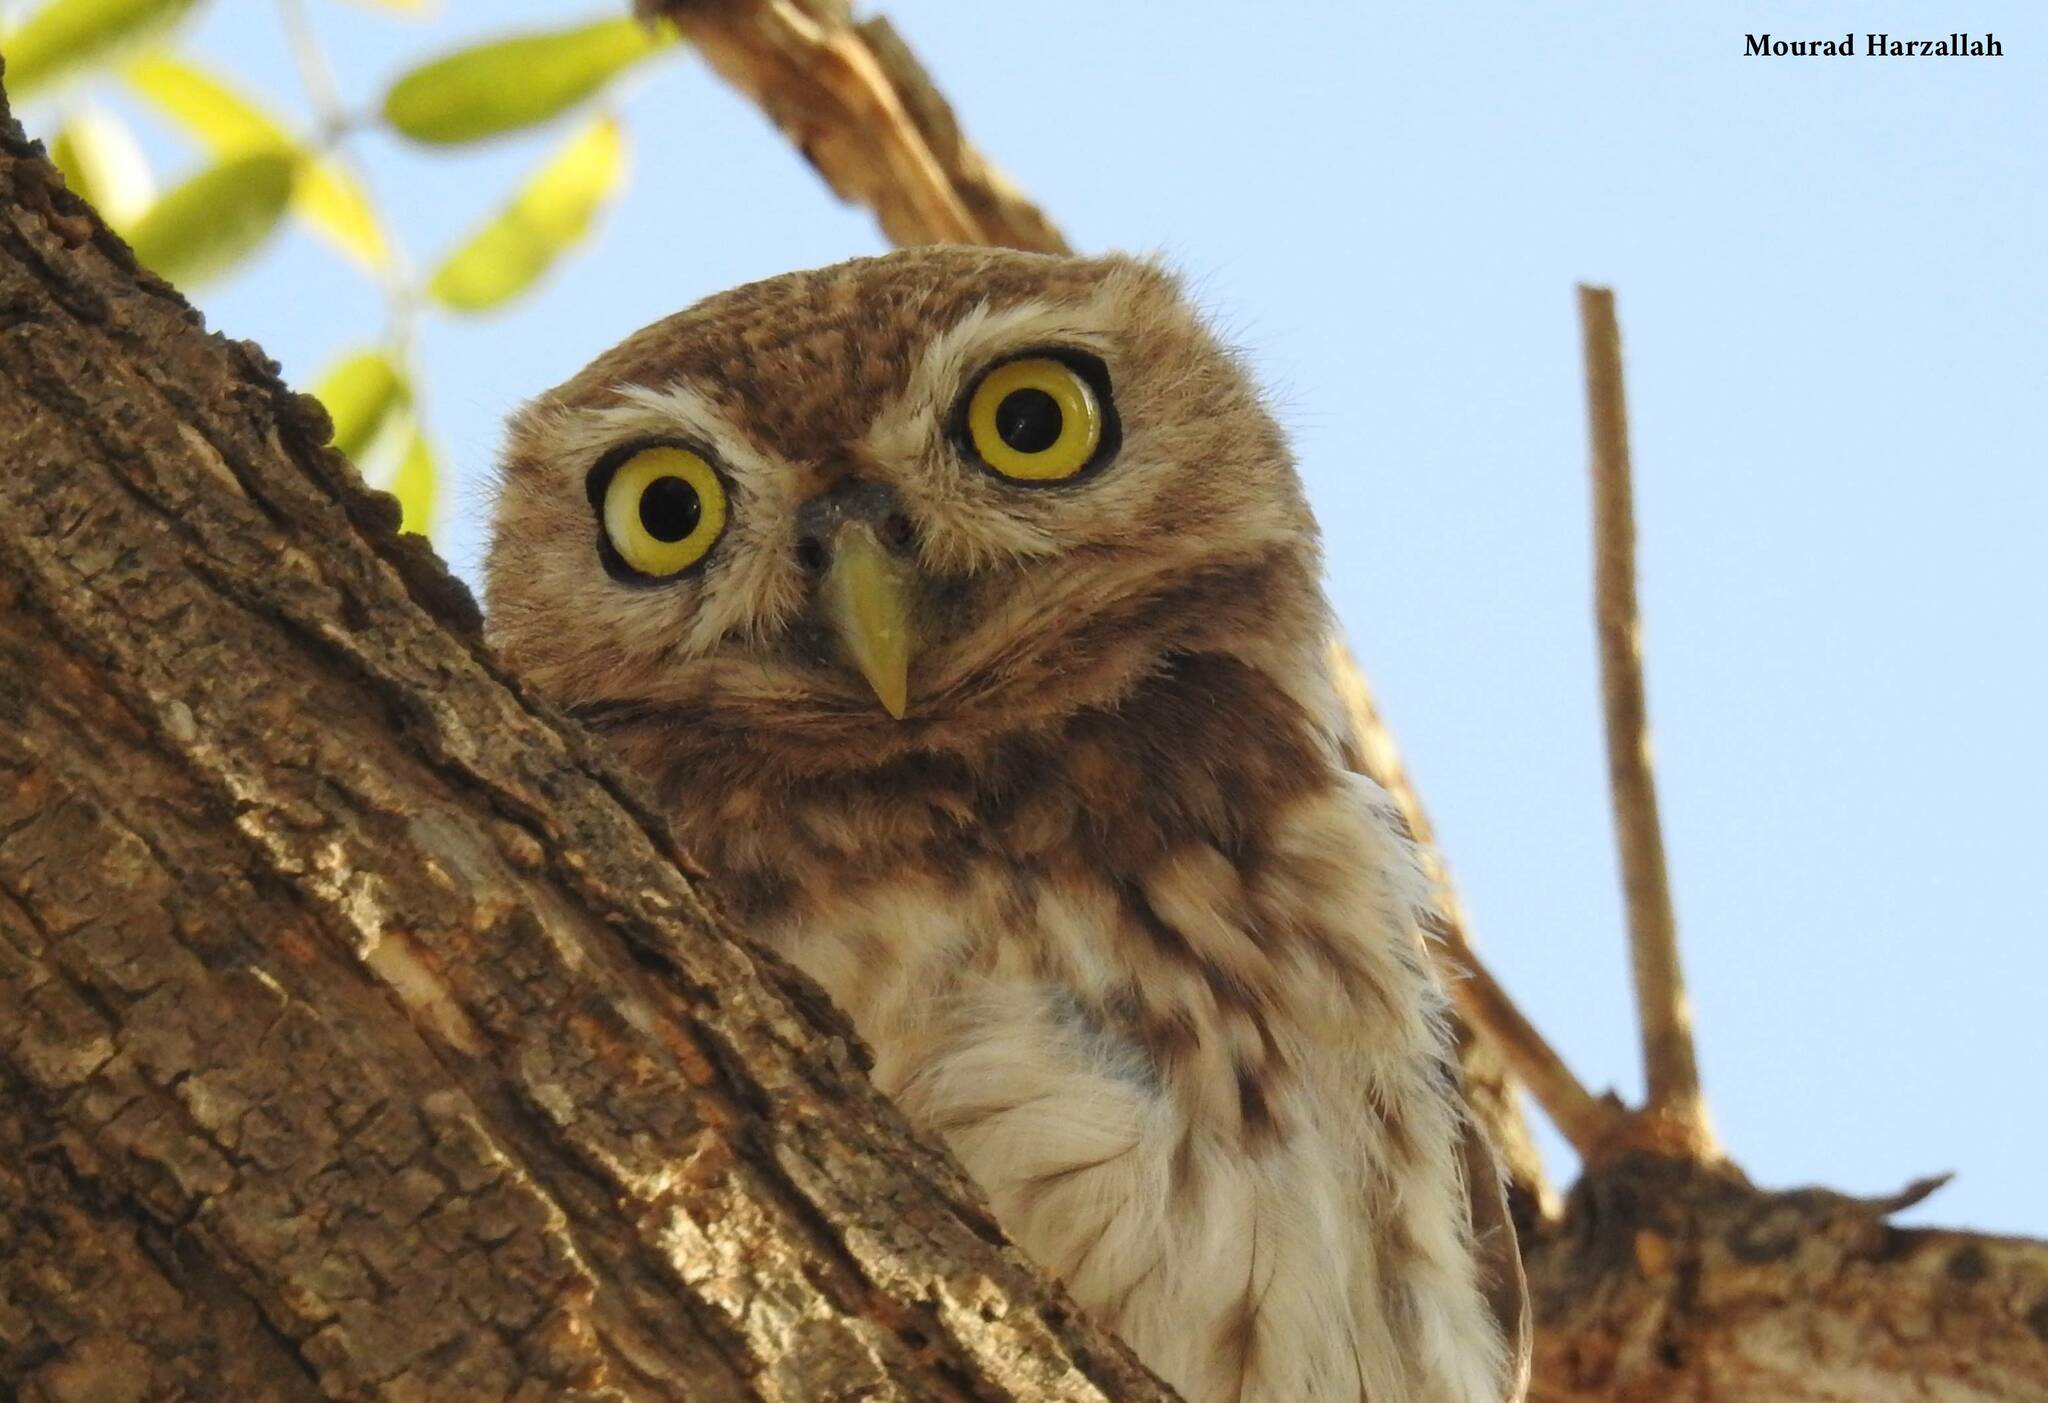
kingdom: Animalia
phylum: Chordata
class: Aves
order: Strigiformes
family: Strigidae
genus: Athene
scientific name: Athene noctua
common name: Little owl
